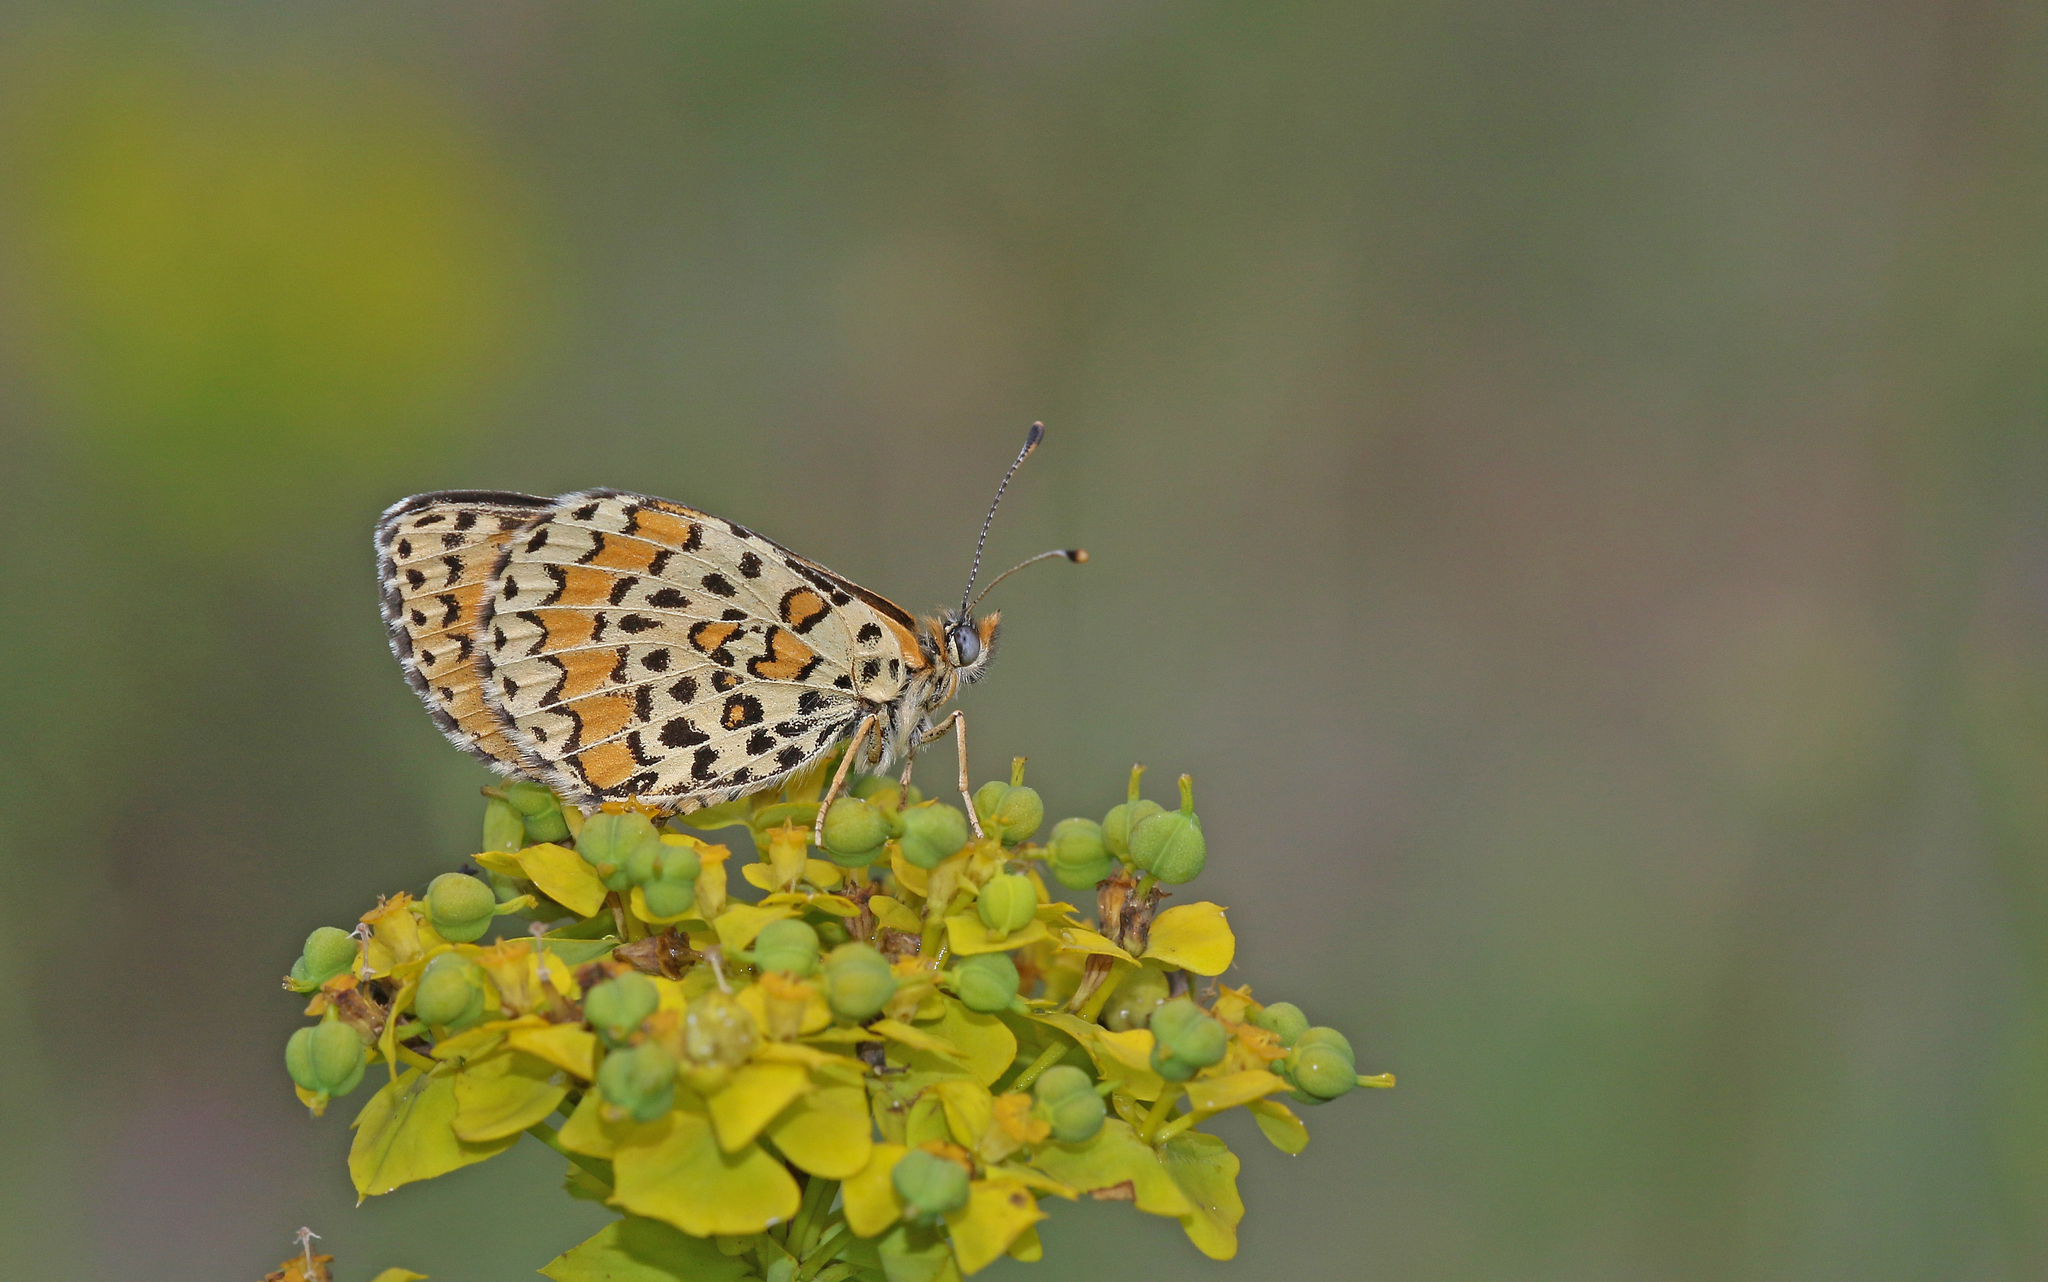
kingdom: Animalia
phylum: Arthropoda
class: Insecta
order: Lepidoptera
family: Nymphalidae
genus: Melitaea
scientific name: Melitaea trivia
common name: Lesser spotted fritillary
